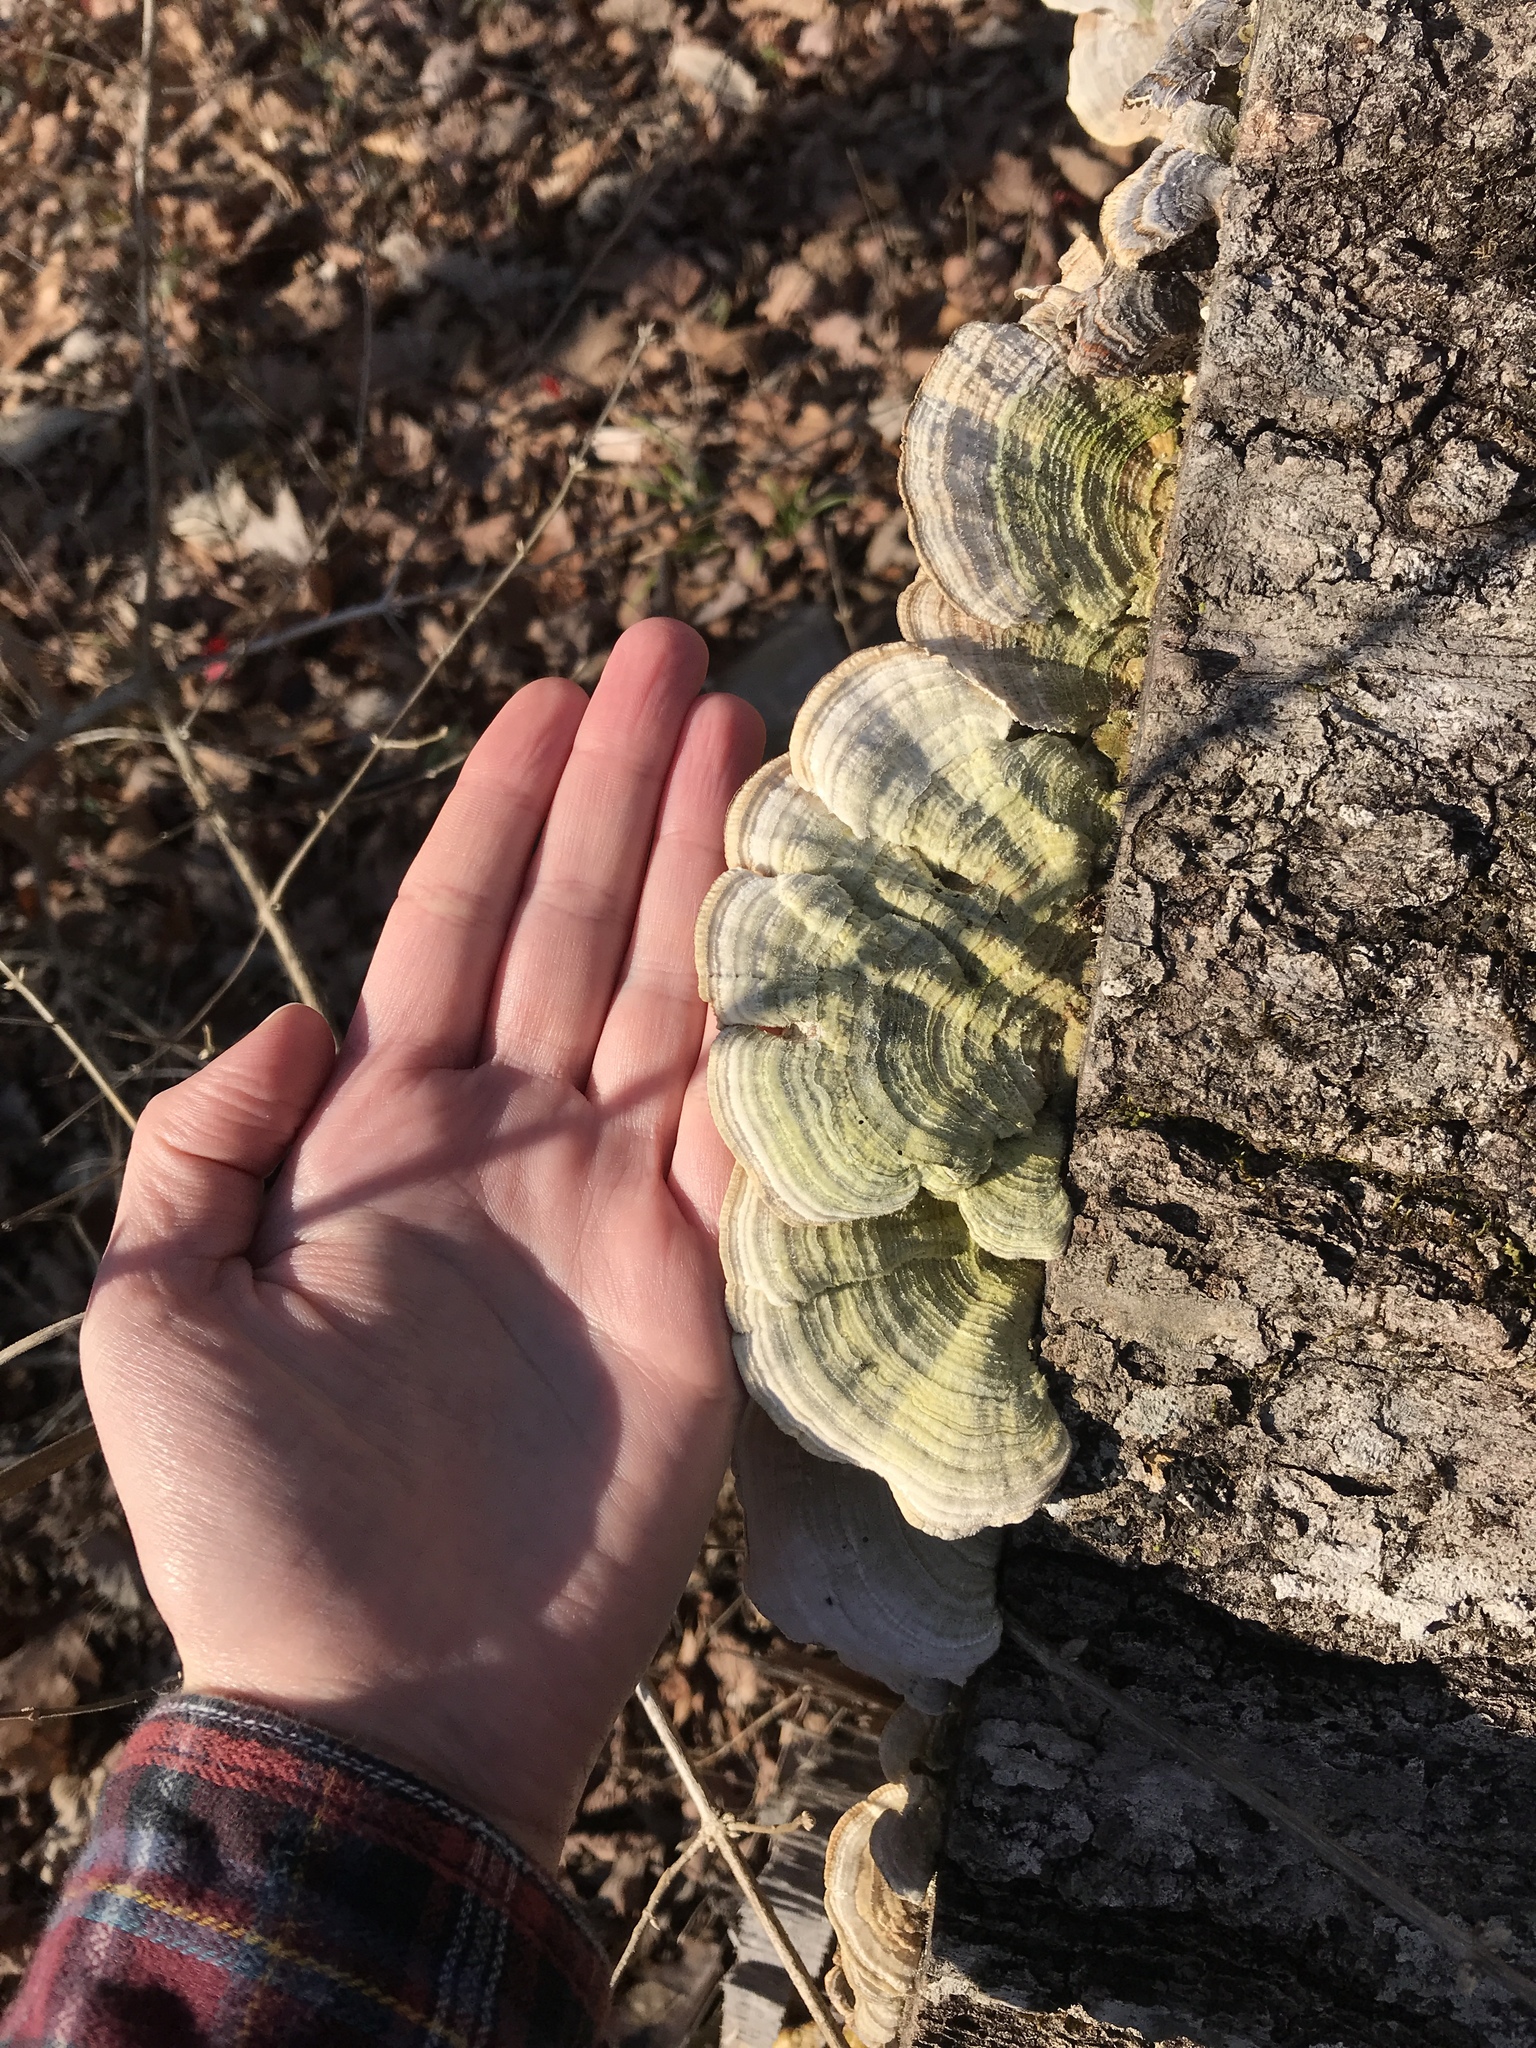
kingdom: Fungi
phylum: Basidiomycota
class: Agaricomycetes
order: Polyporales
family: Polyporaceae
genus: Lenzites
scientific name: Lenzites betulinus
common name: Birch mazegill
